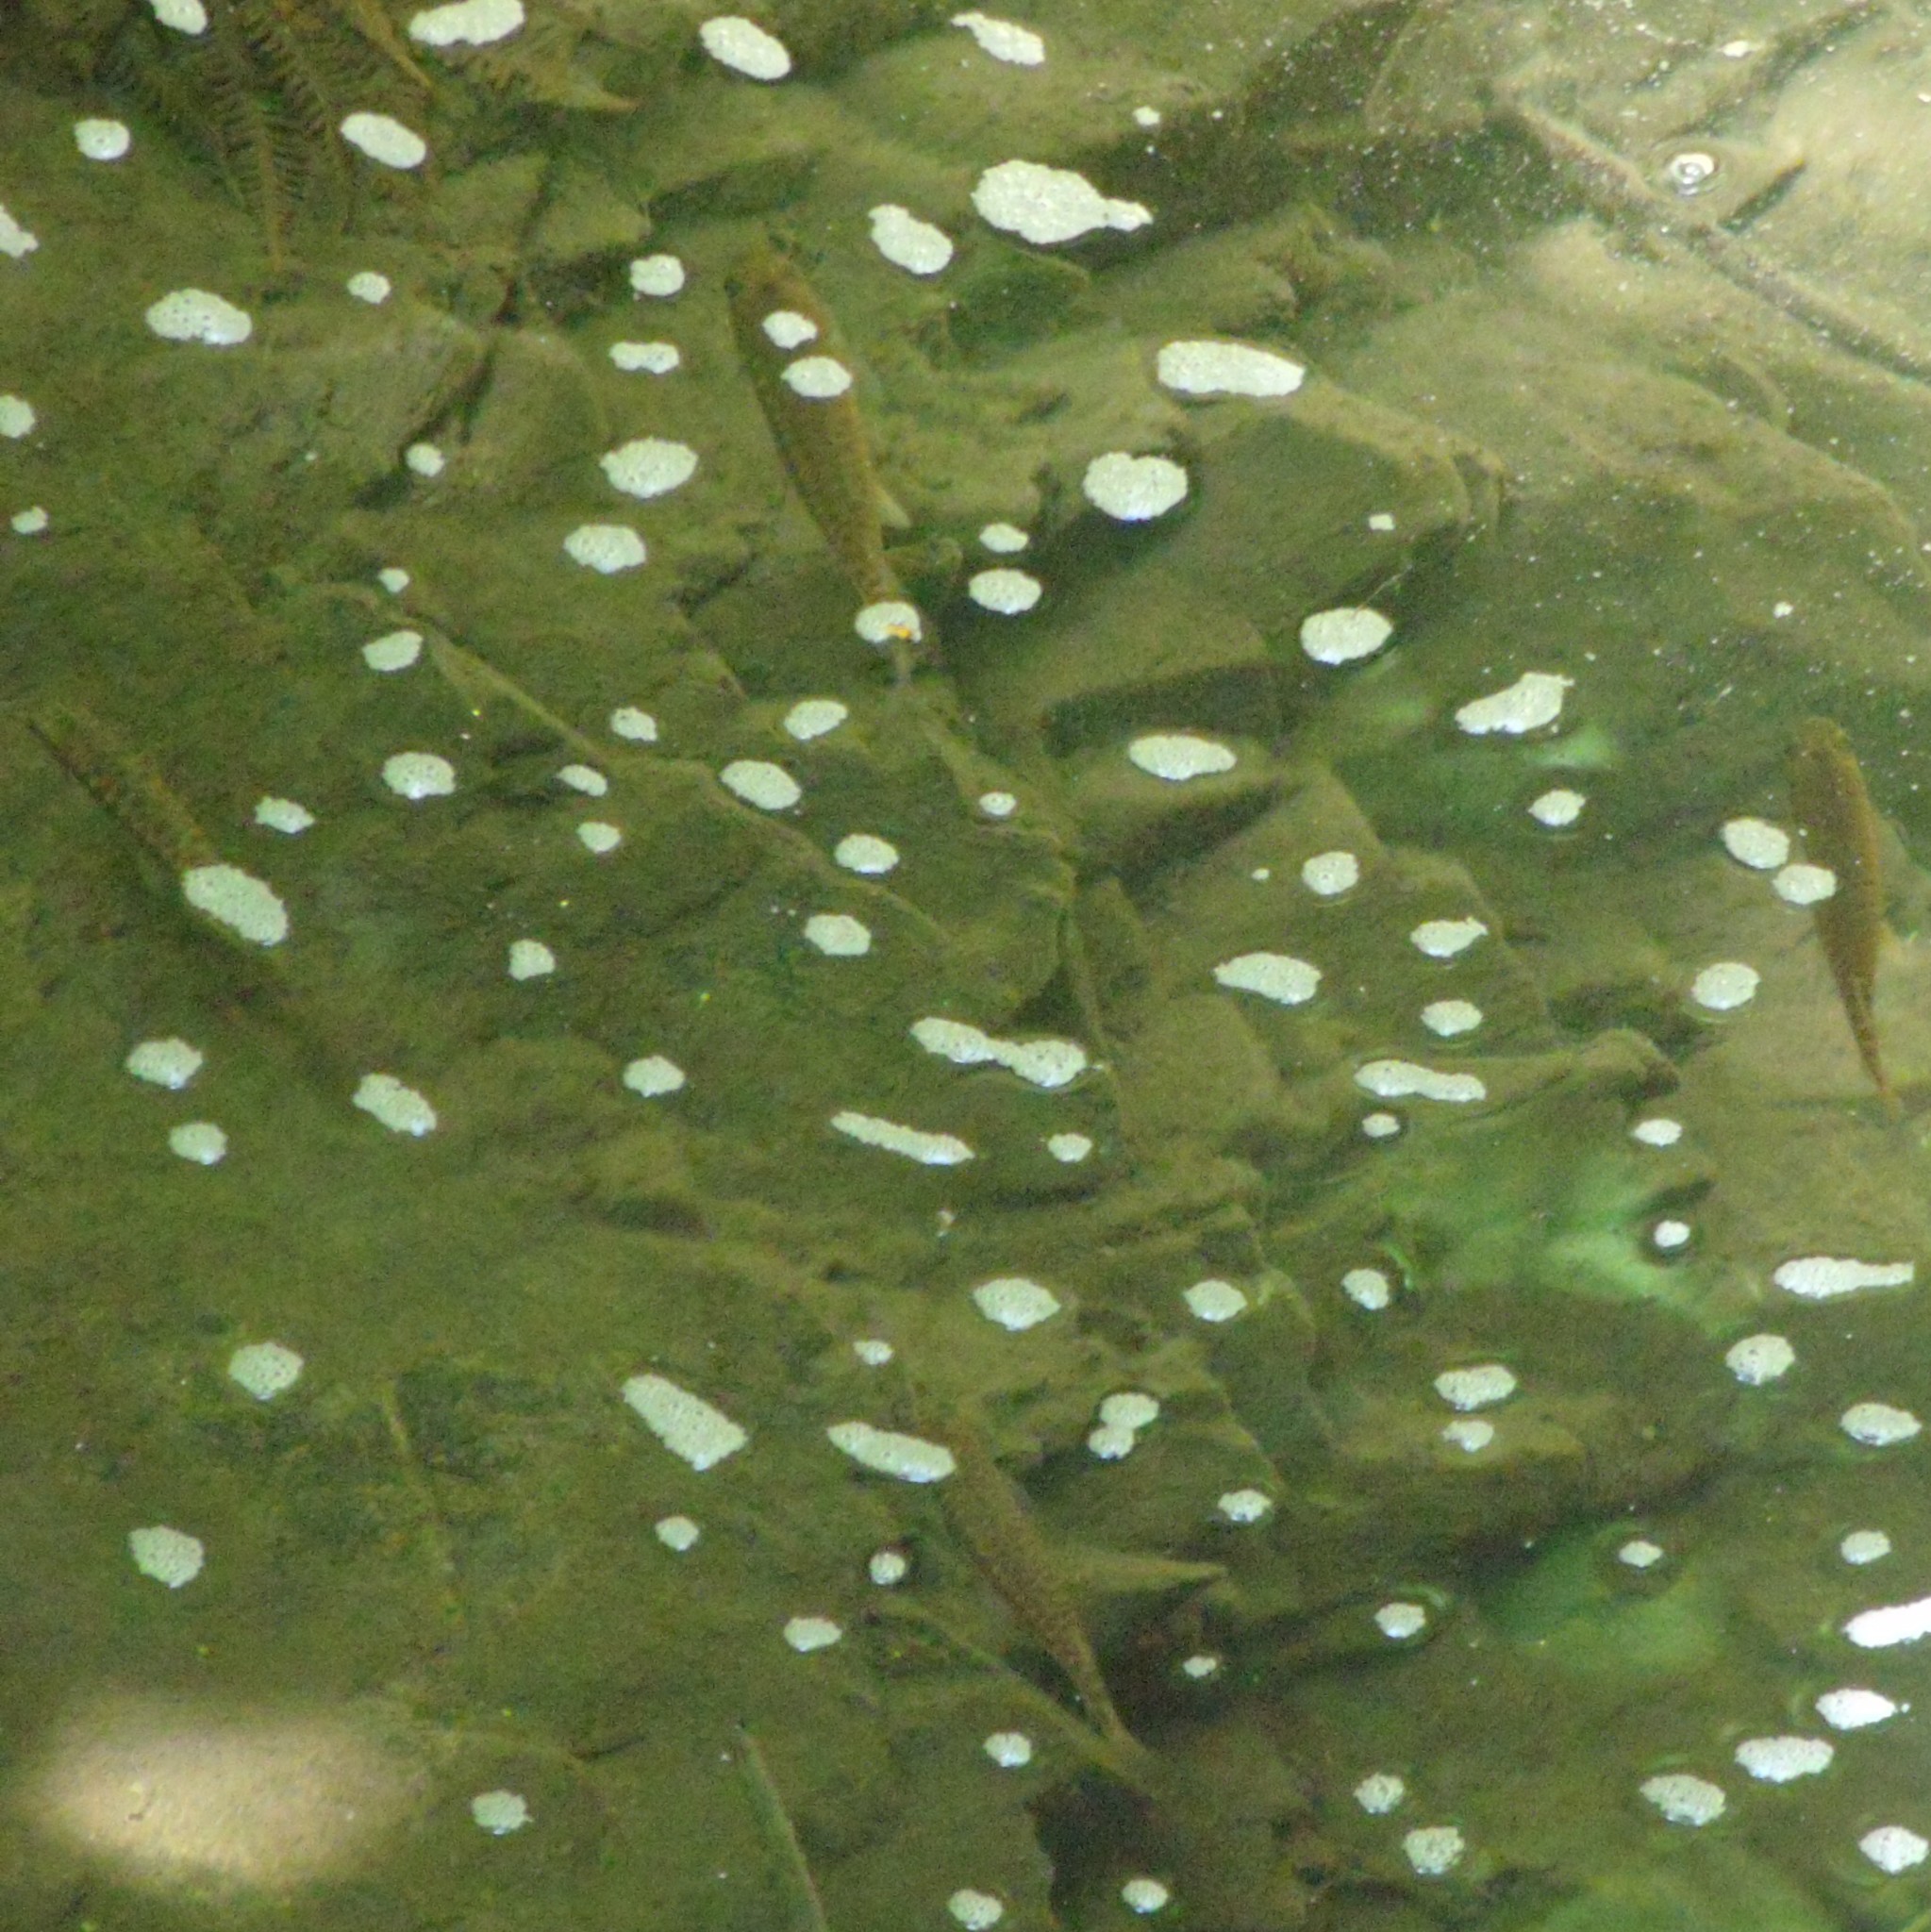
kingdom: Animalia
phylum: Chordata
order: Osmeriformes
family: Galaxiidae
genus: Galaxias
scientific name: Galaxias fasciatus
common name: Banded kokopu
